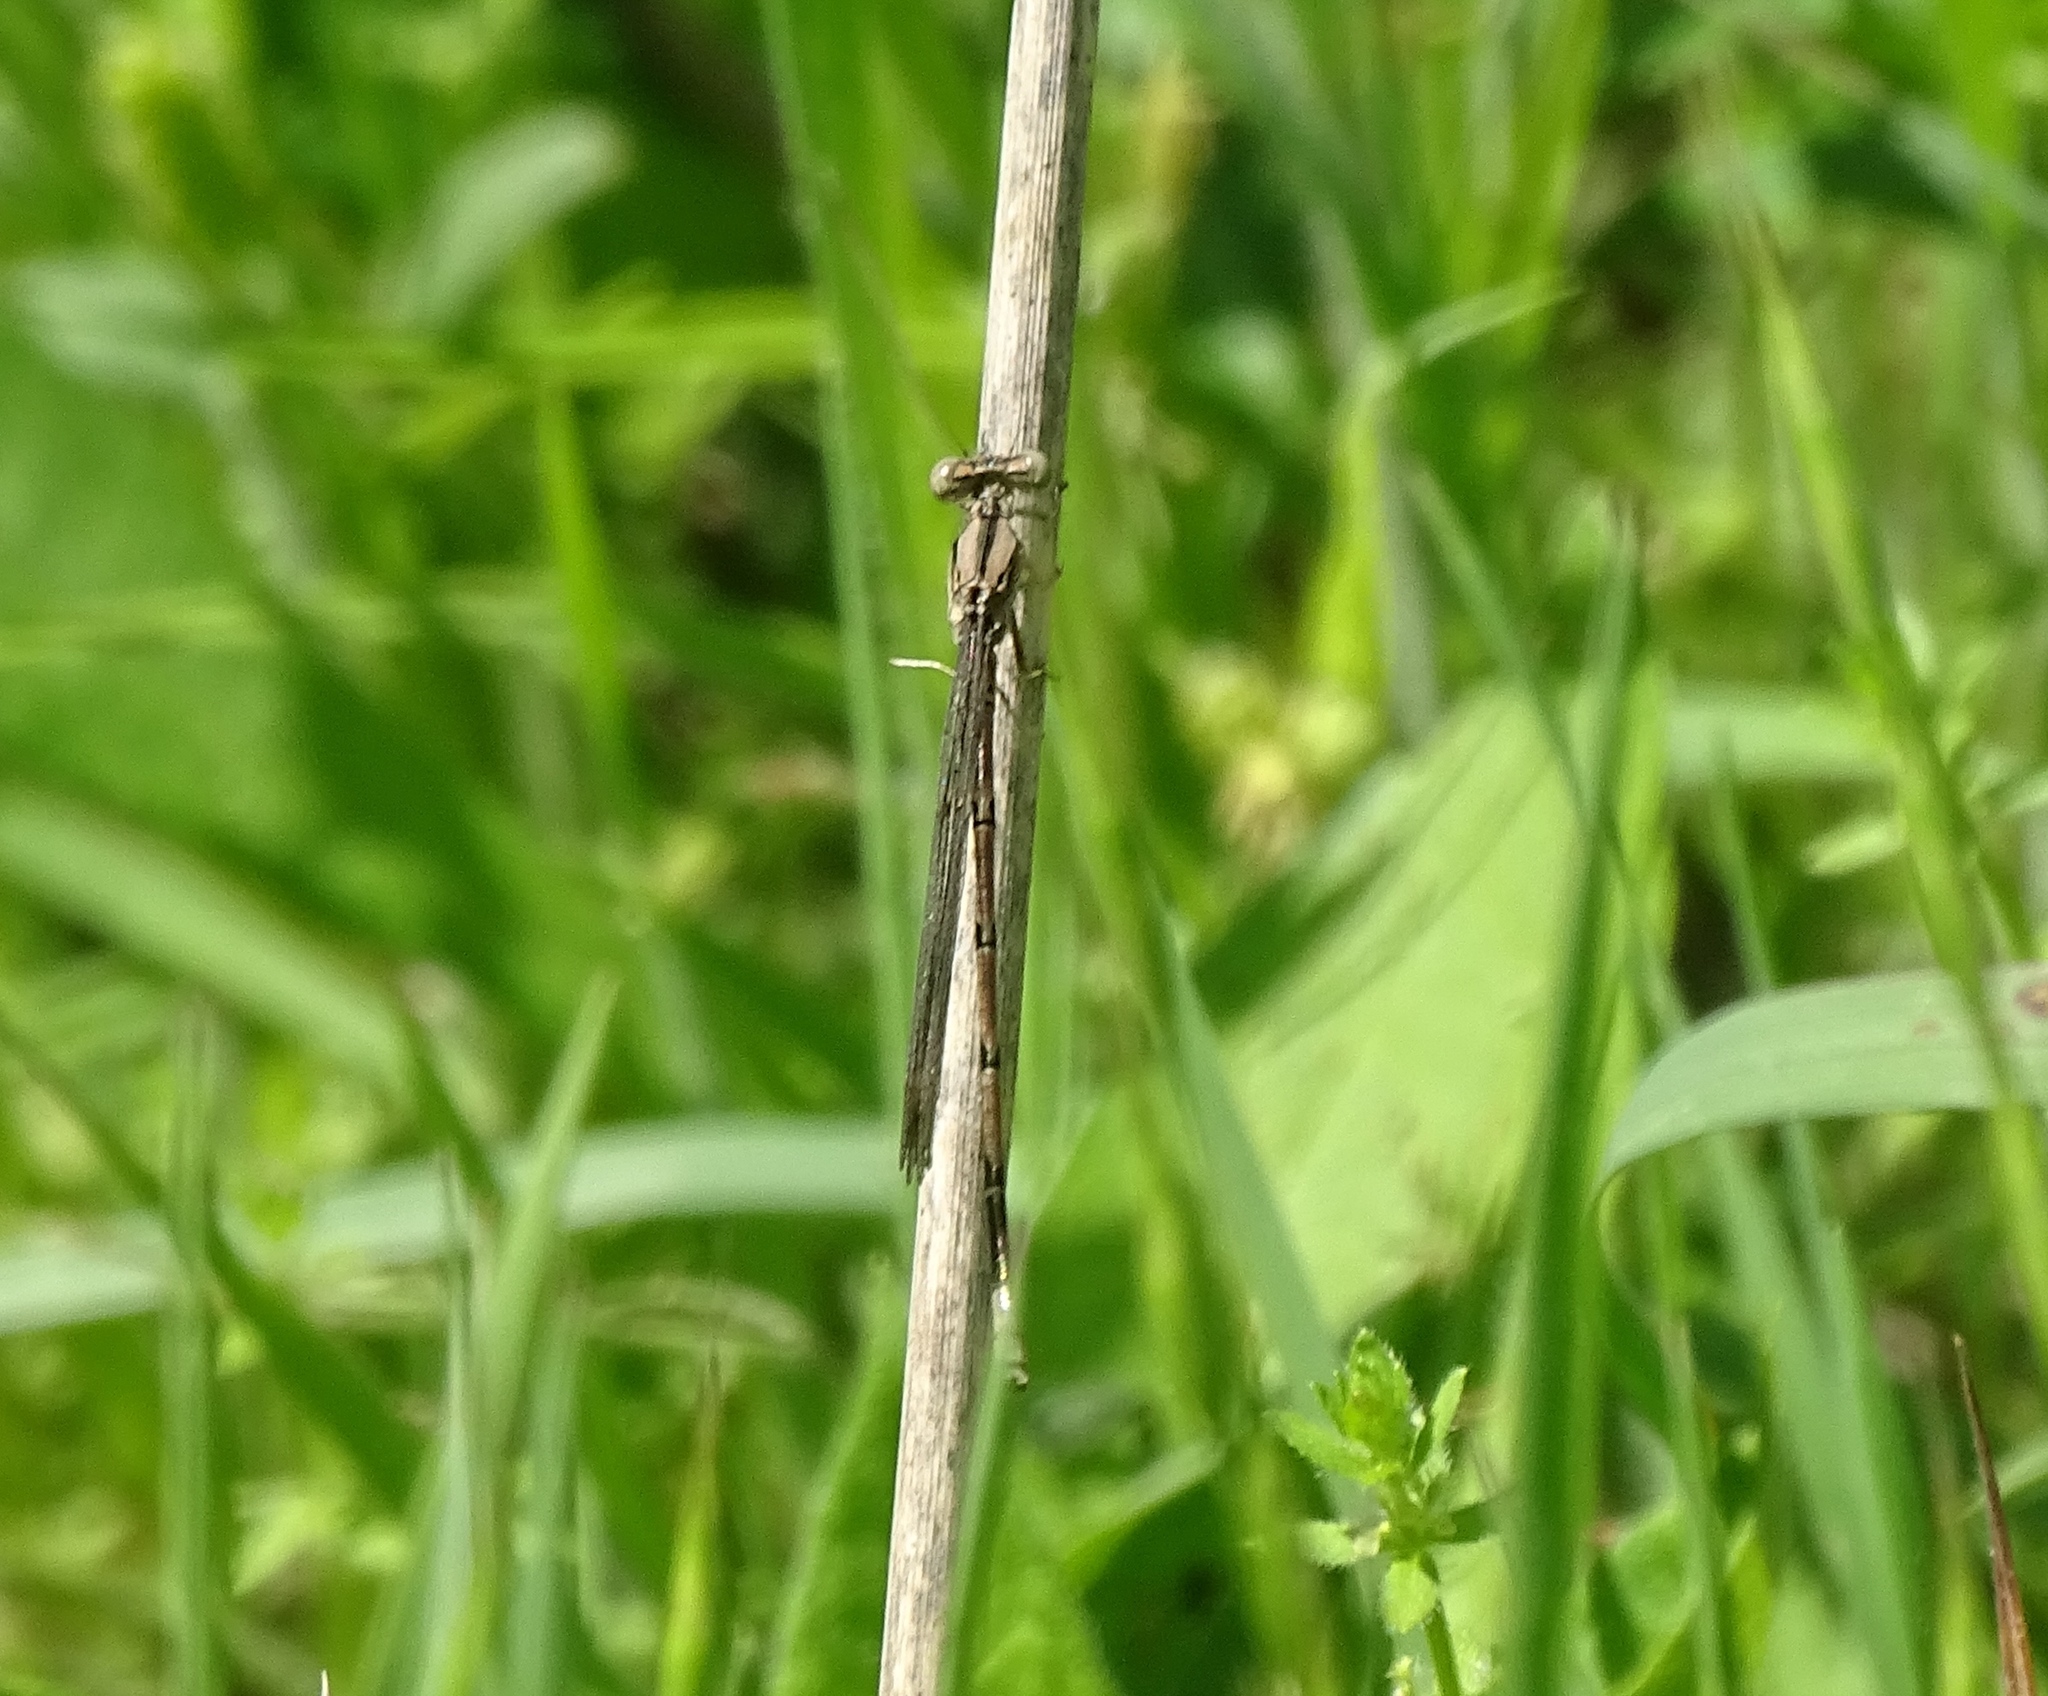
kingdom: Animalia
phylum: Arthropoda
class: Insecta
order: Odonata
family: Coenagrionidae
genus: Argia
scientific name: Argia fumipennis
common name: Variable dancer
